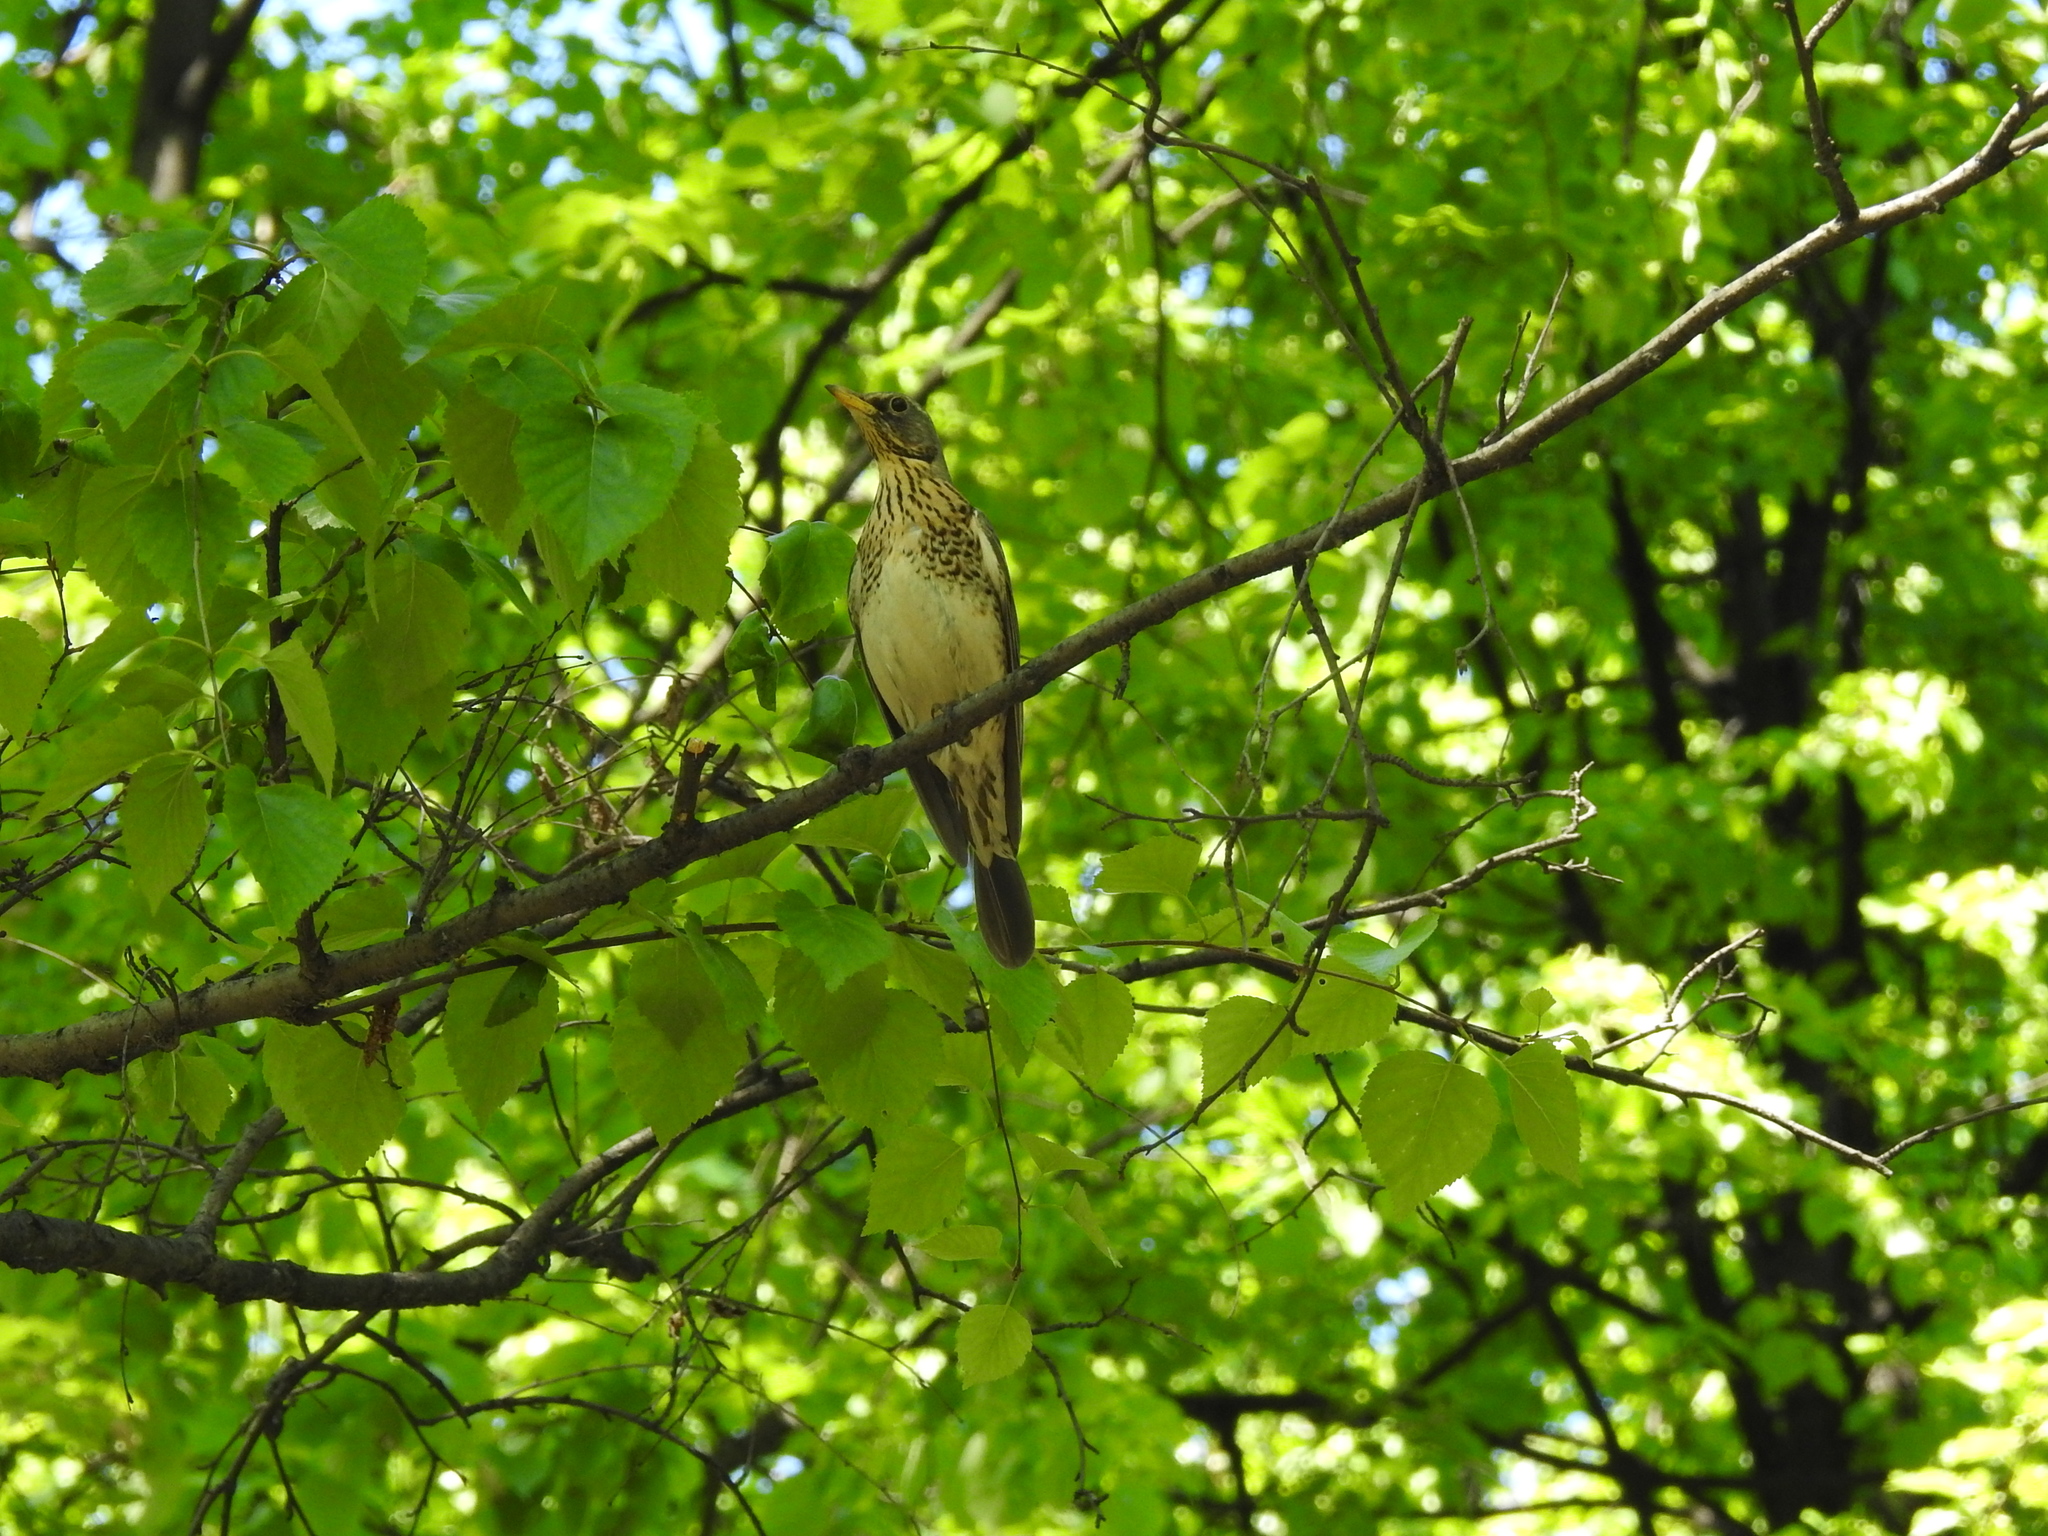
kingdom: Animalia
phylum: Chordata
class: Aves
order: Passeriformes
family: Turdidae
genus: Turdus
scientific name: Turdus pilaris
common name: Fieldfare
